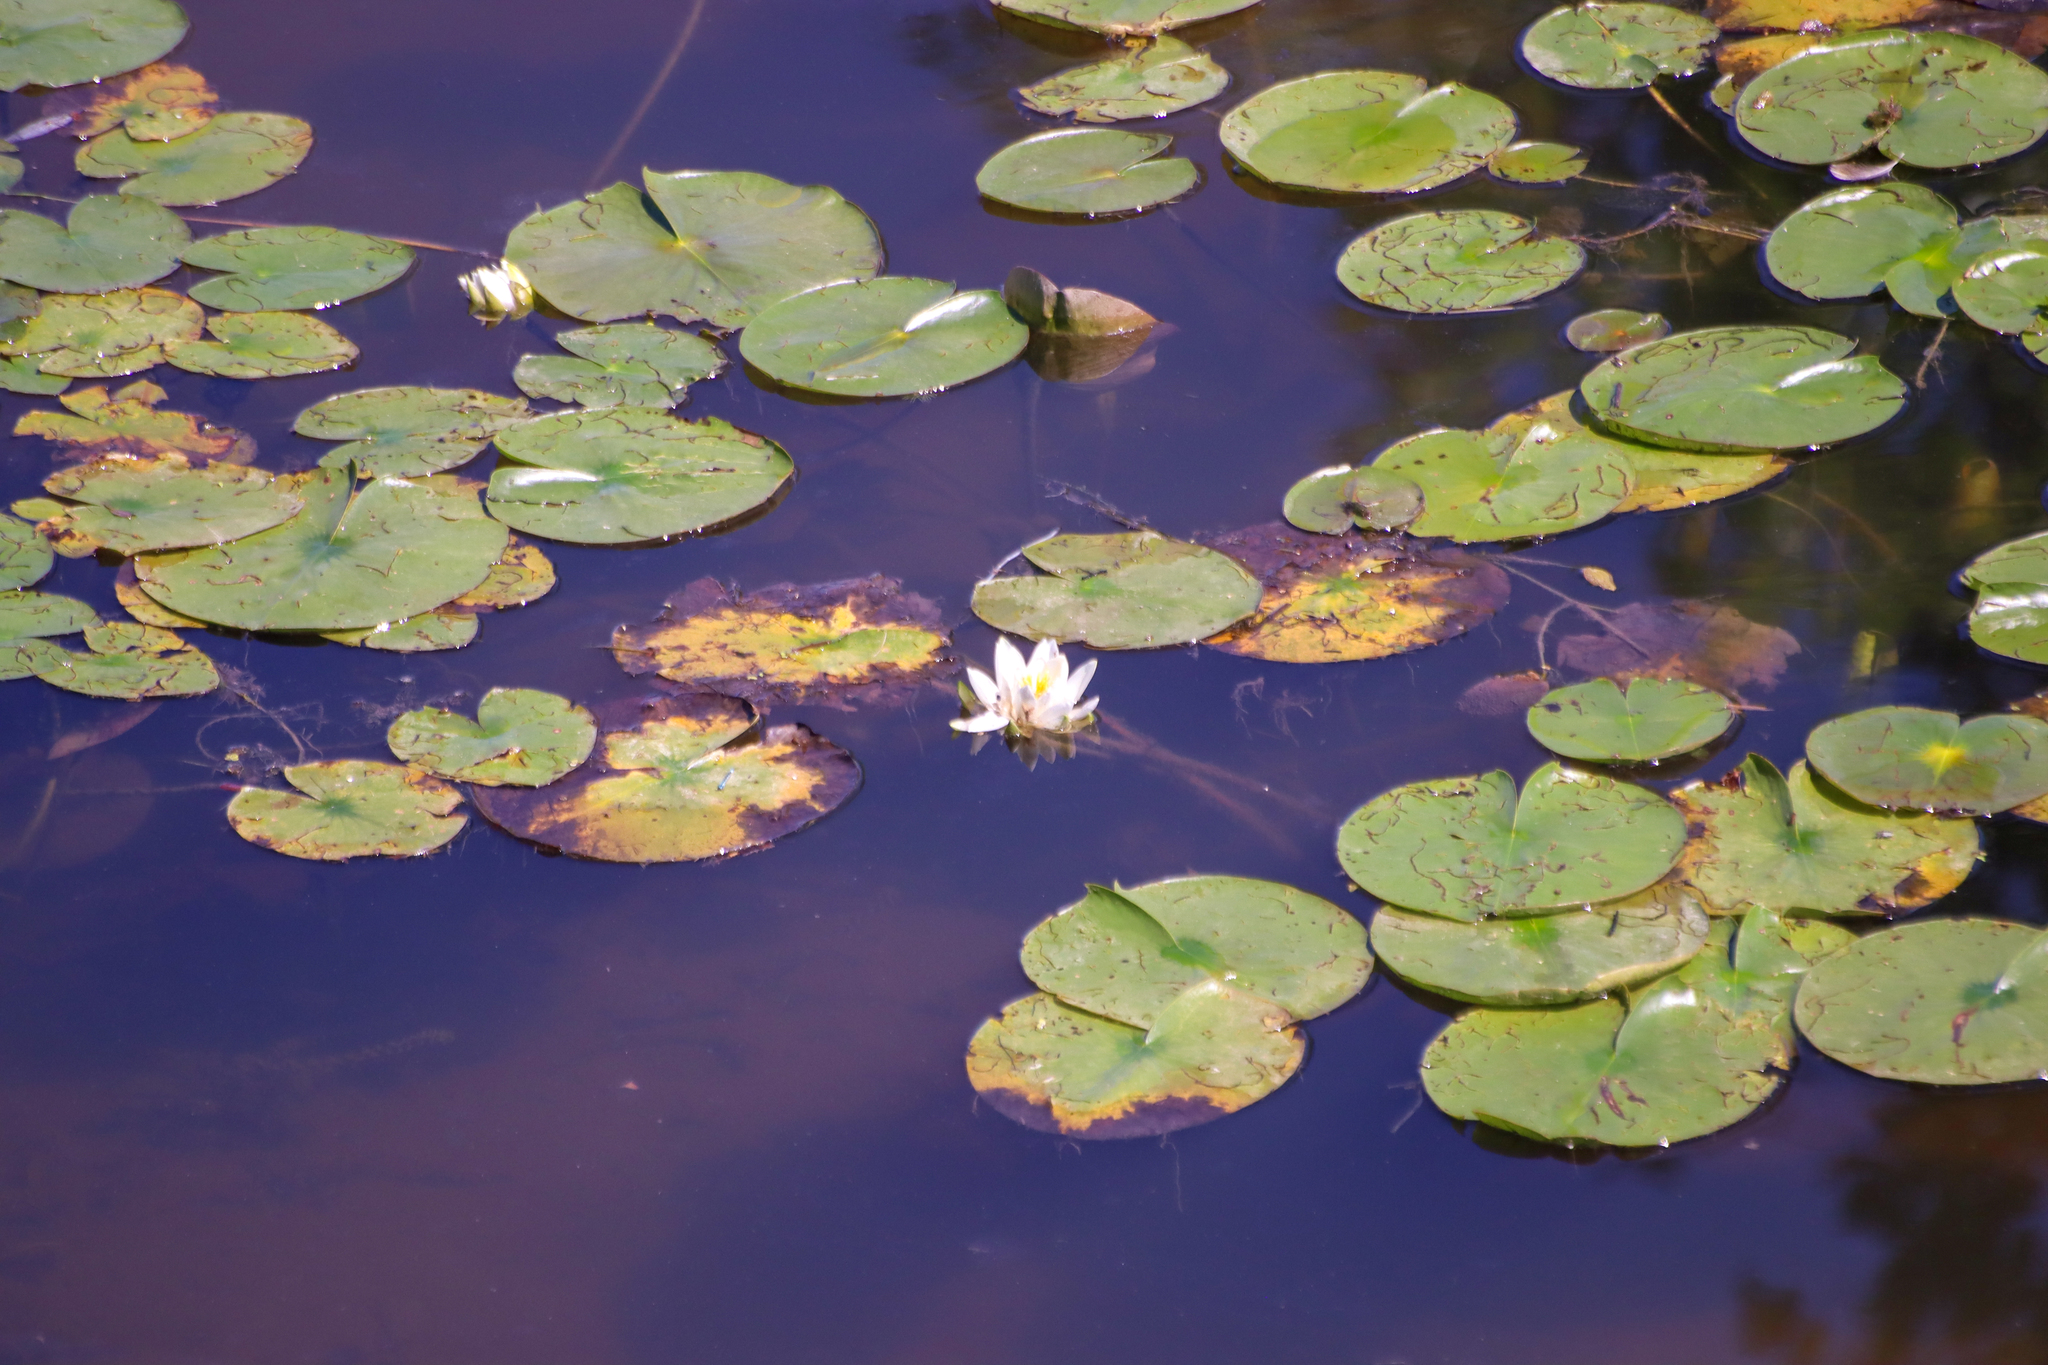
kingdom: Plantae
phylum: Tracheophyta
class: Magnoliopsida
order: Nymphaeales
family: Nymphaeaceae
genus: Nymphaea
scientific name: Nymphaea odorata
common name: Fragrant water-lily
